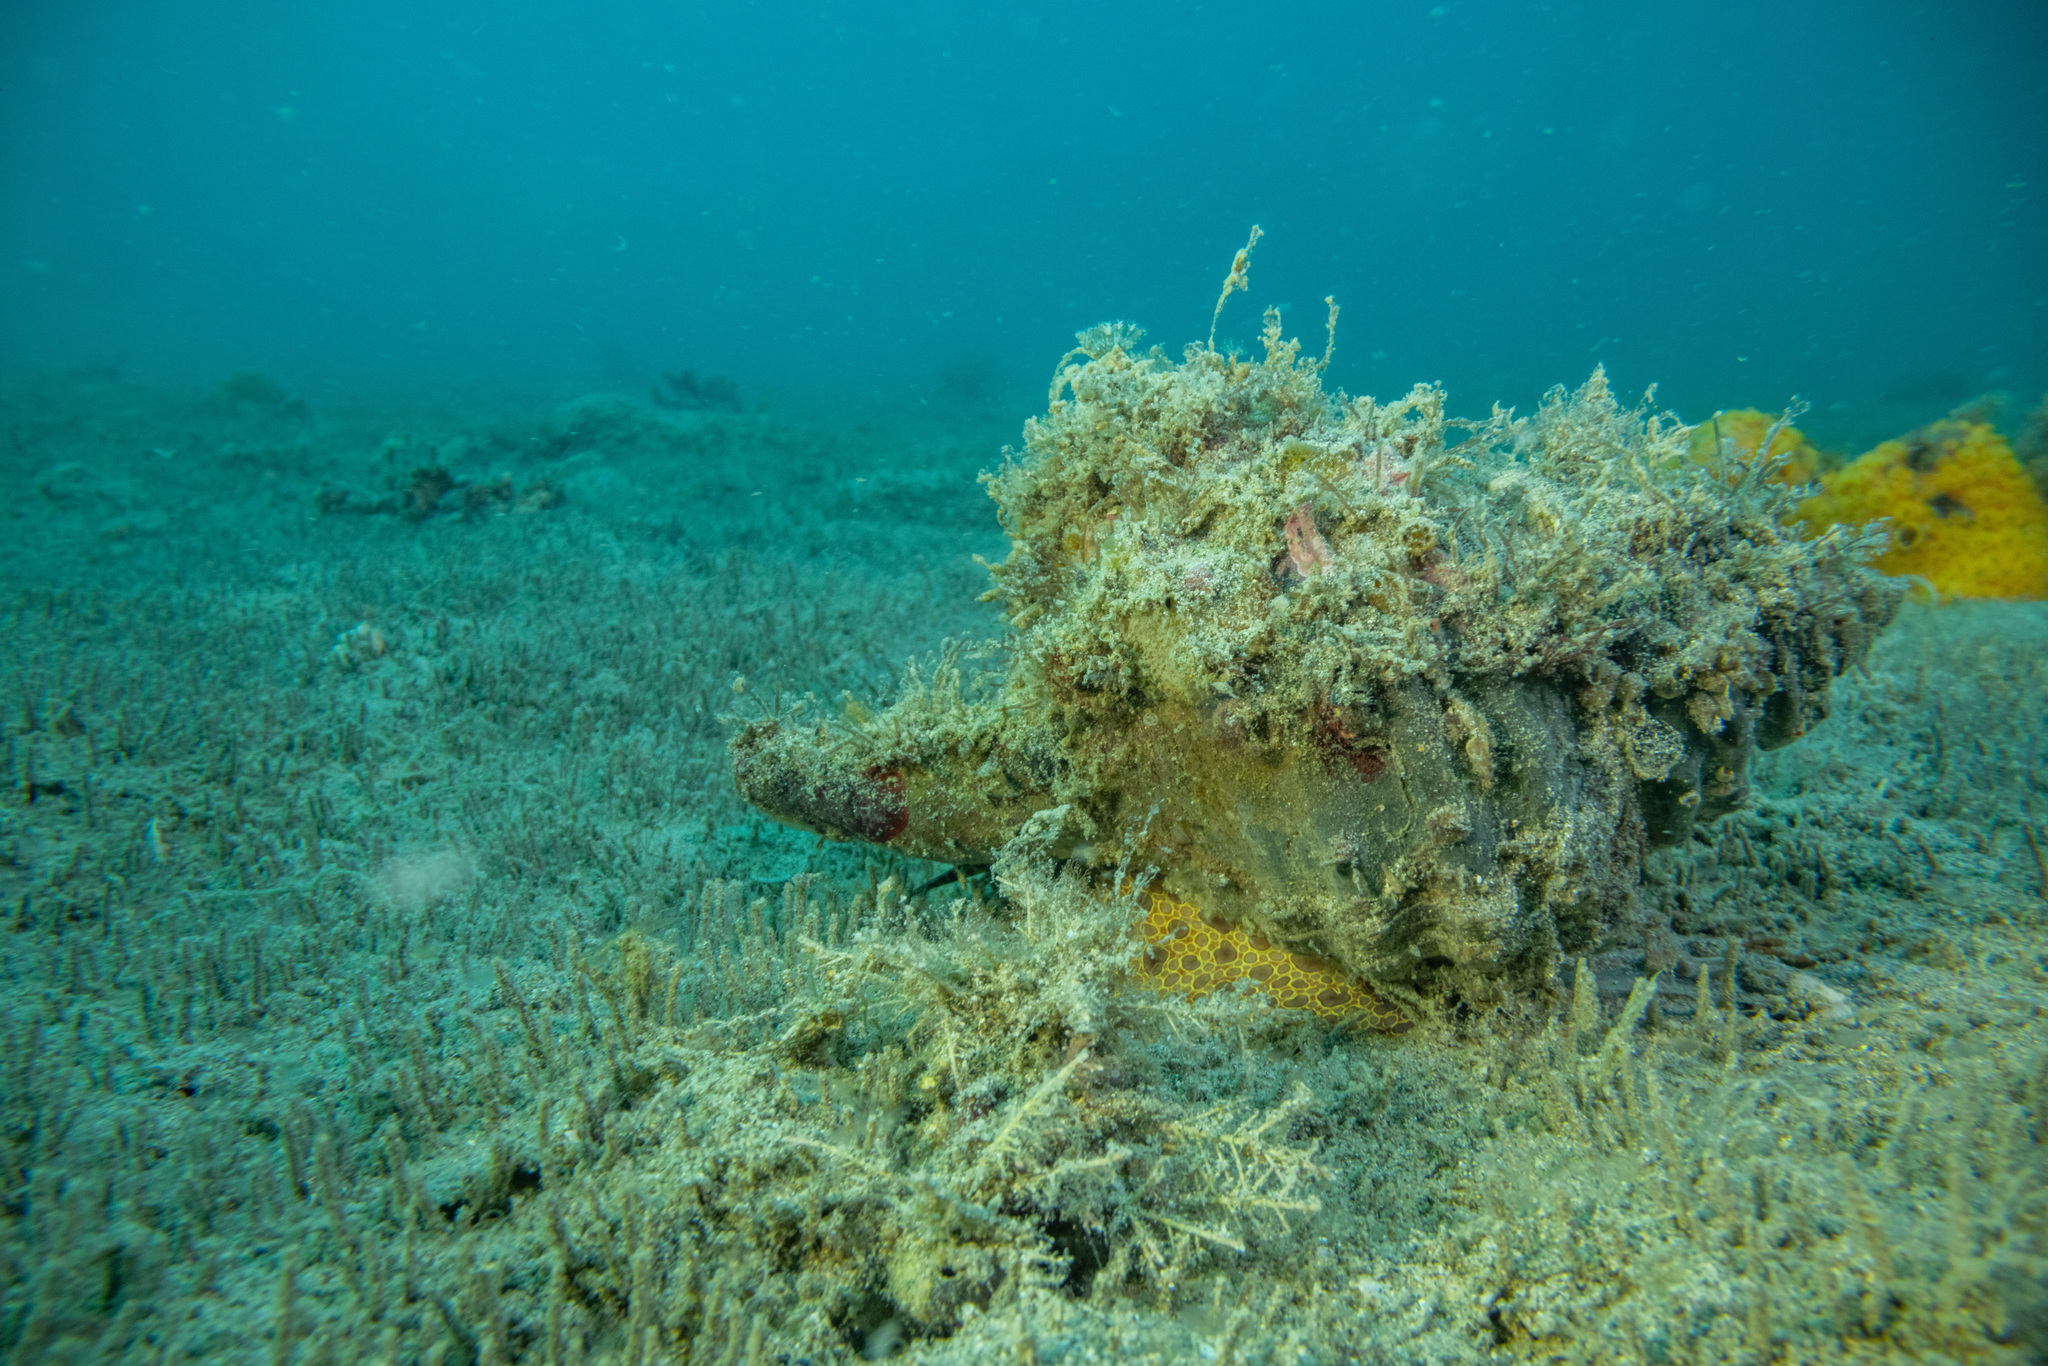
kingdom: Animalia
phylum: Mollusca
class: Gastropoda
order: Littorinimorpha
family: Cymatiidae
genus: Monoplex
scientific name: Monoplex parthenopeus
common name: Giant triton
